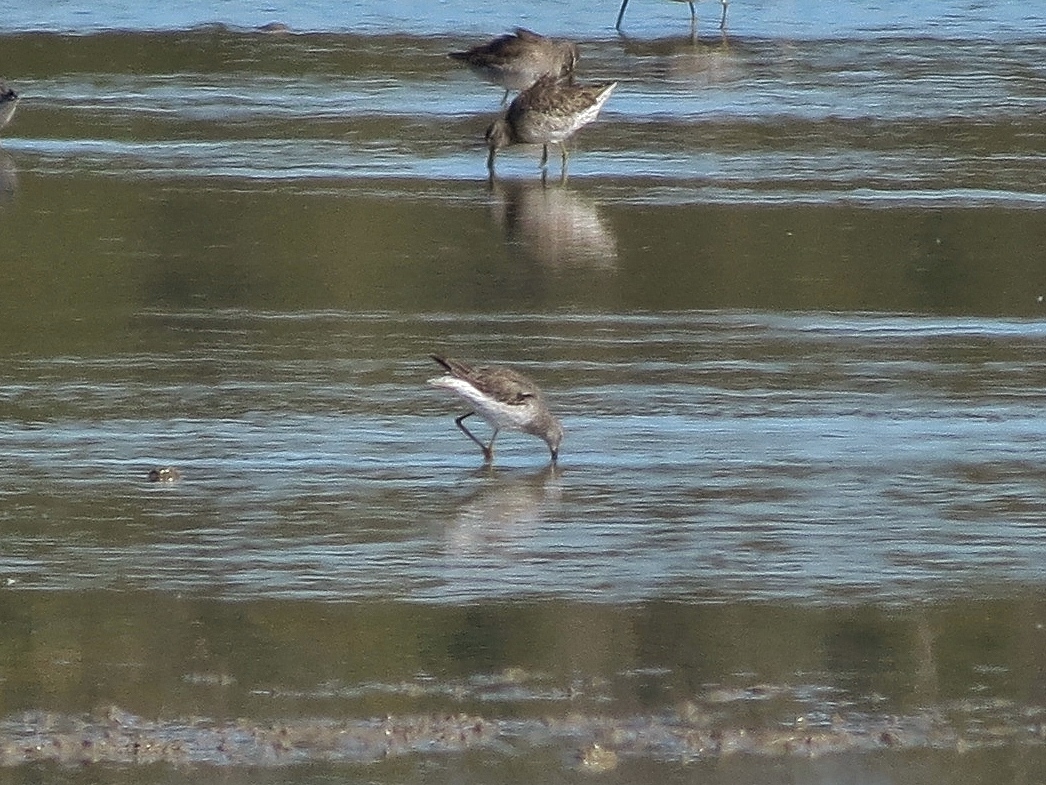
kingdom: Animalia
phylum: Chordata
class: Aves
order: Charadriiformes
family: Scolopacidae
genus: Calidris
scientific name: Calidris himantopus
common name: Stilt sandpiper
